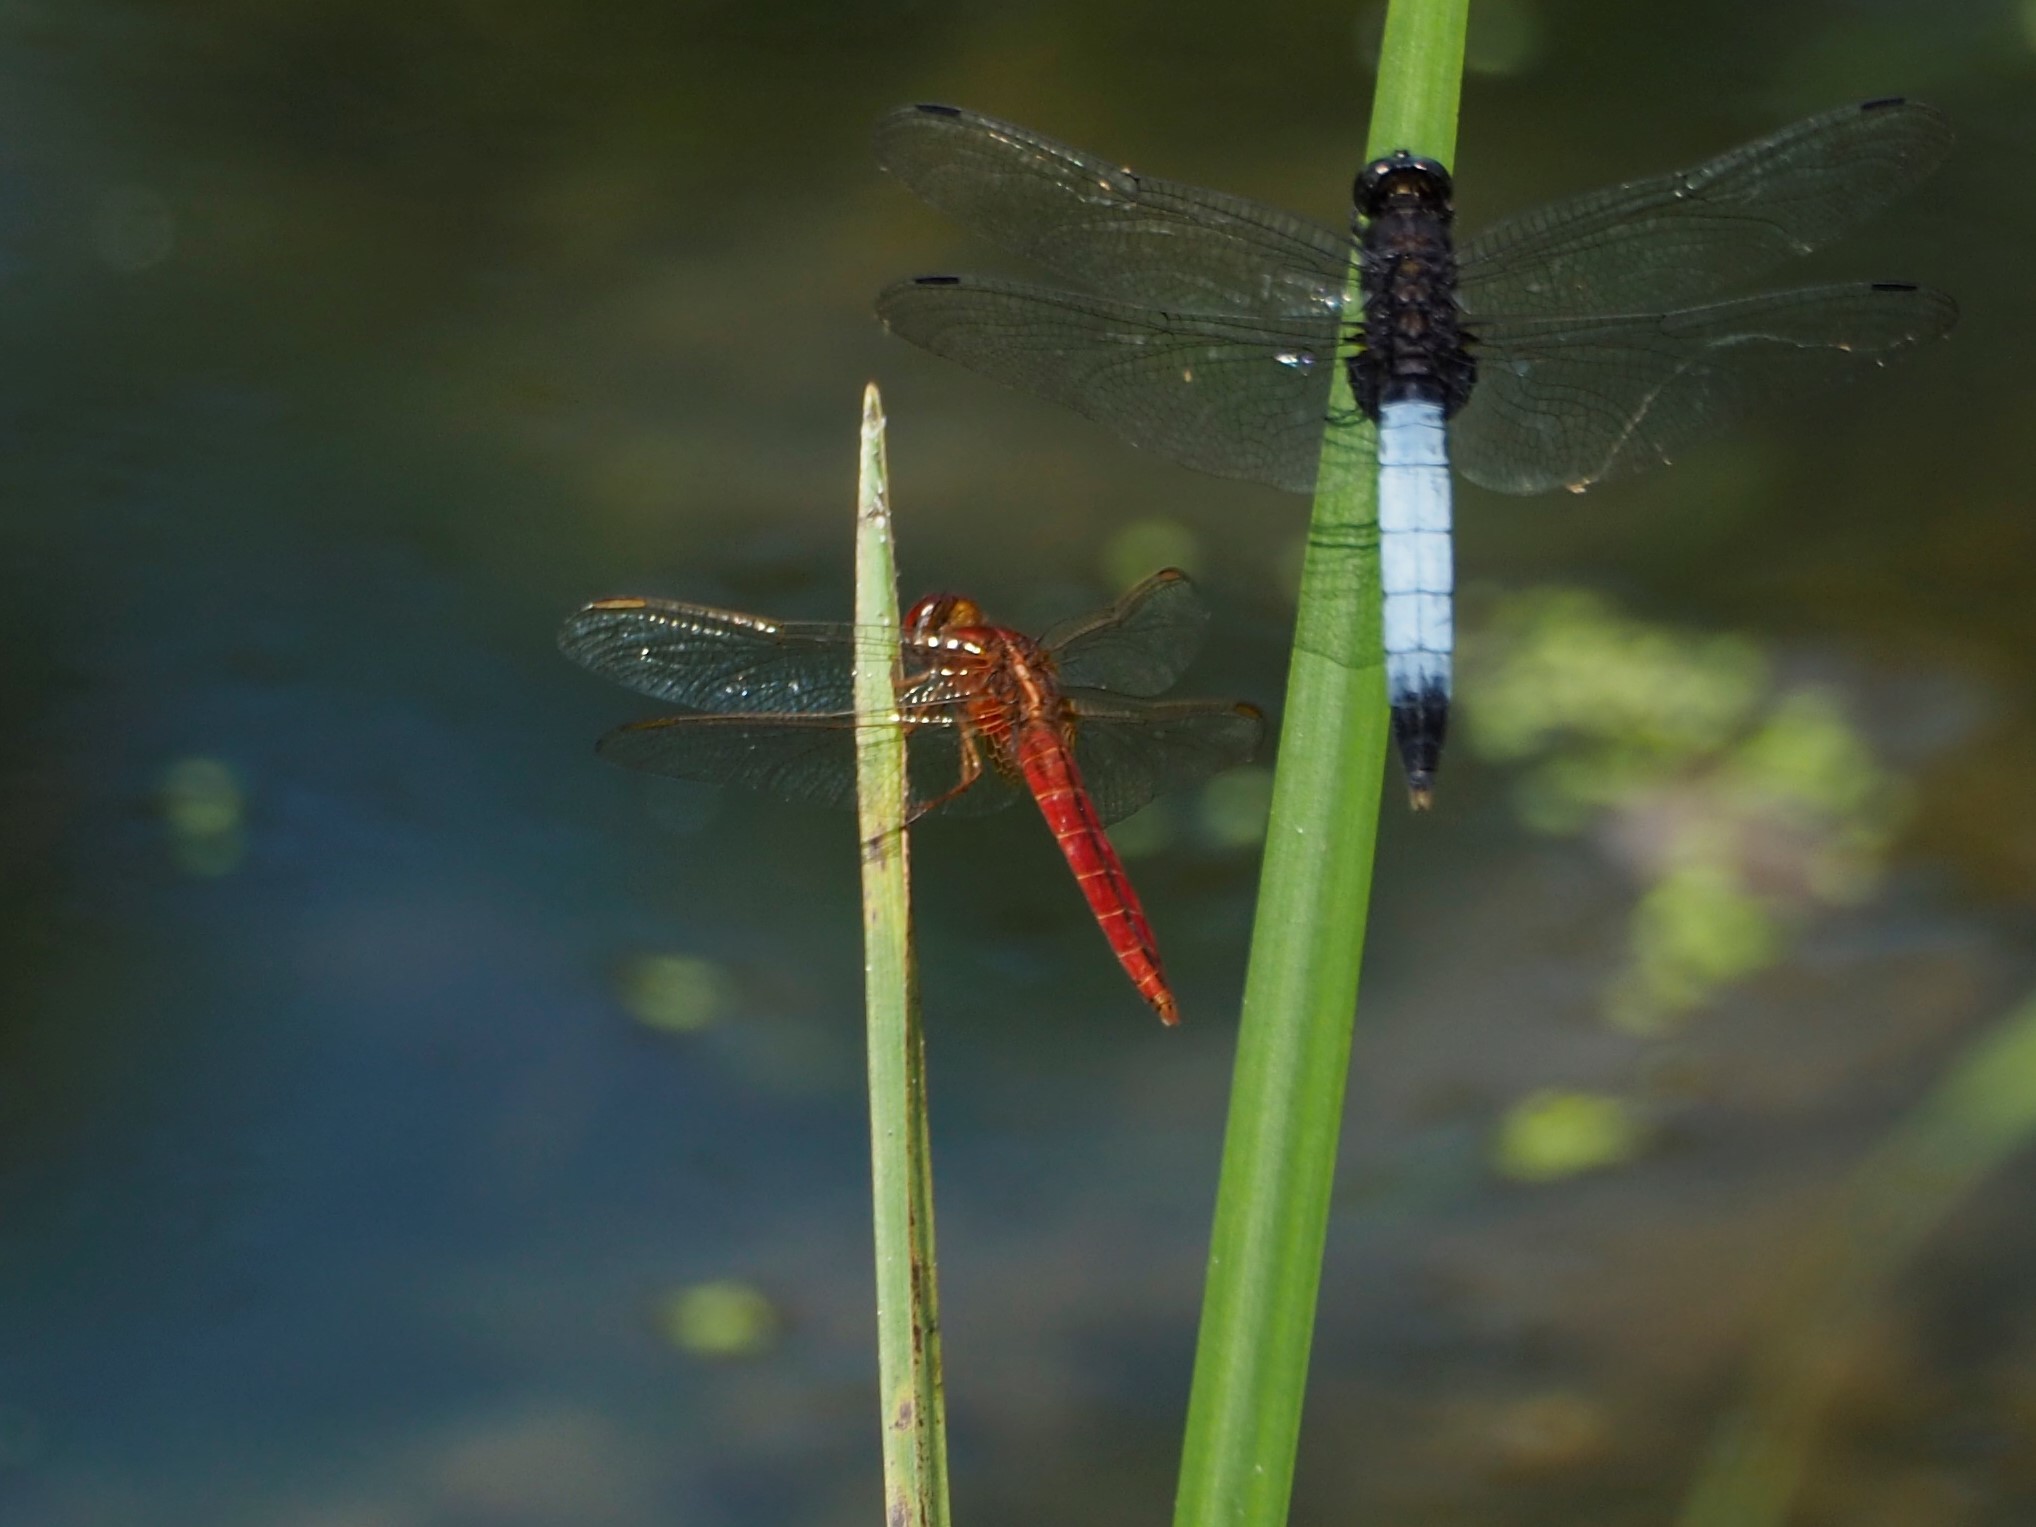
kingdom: Animalia
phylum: Arthropoda
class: Insecta
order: Odonata
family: Libellulidae
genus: Crocothemis
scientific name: Crocothemis servilia
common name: Scarlet skimmer
